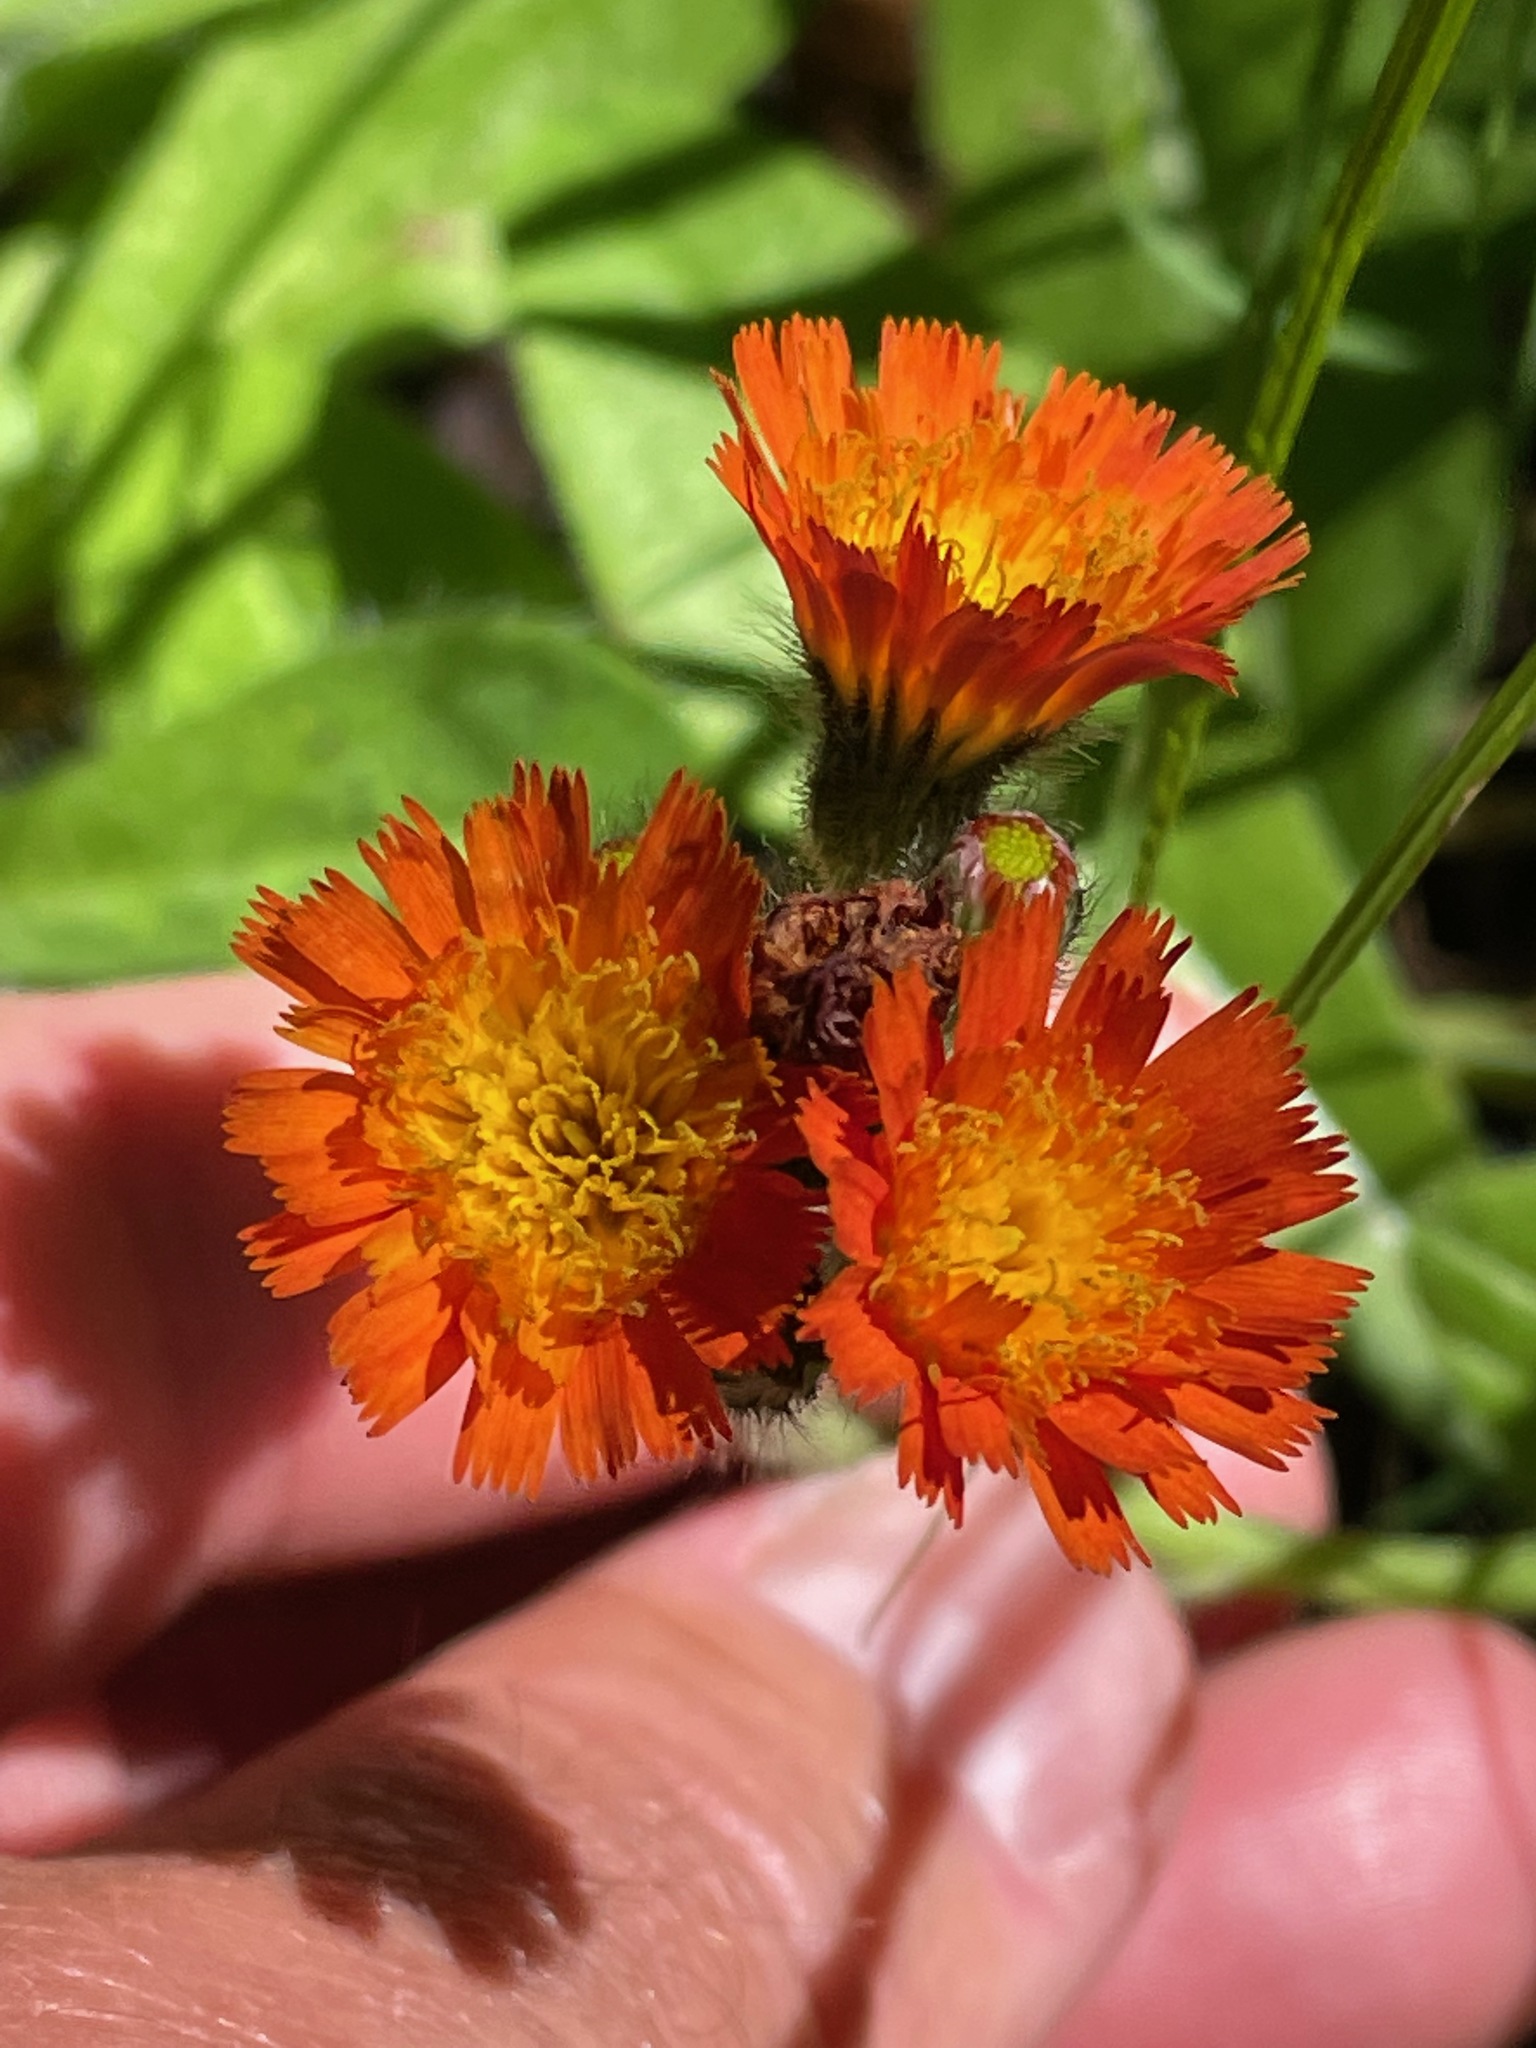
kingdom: Plantae
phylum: Tracheophyta
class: Magnoliopsida
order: Asterales
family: Asteraceae
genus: Pilosella
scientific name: Pilosella aurantiaca
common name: Fox-and-cubs
